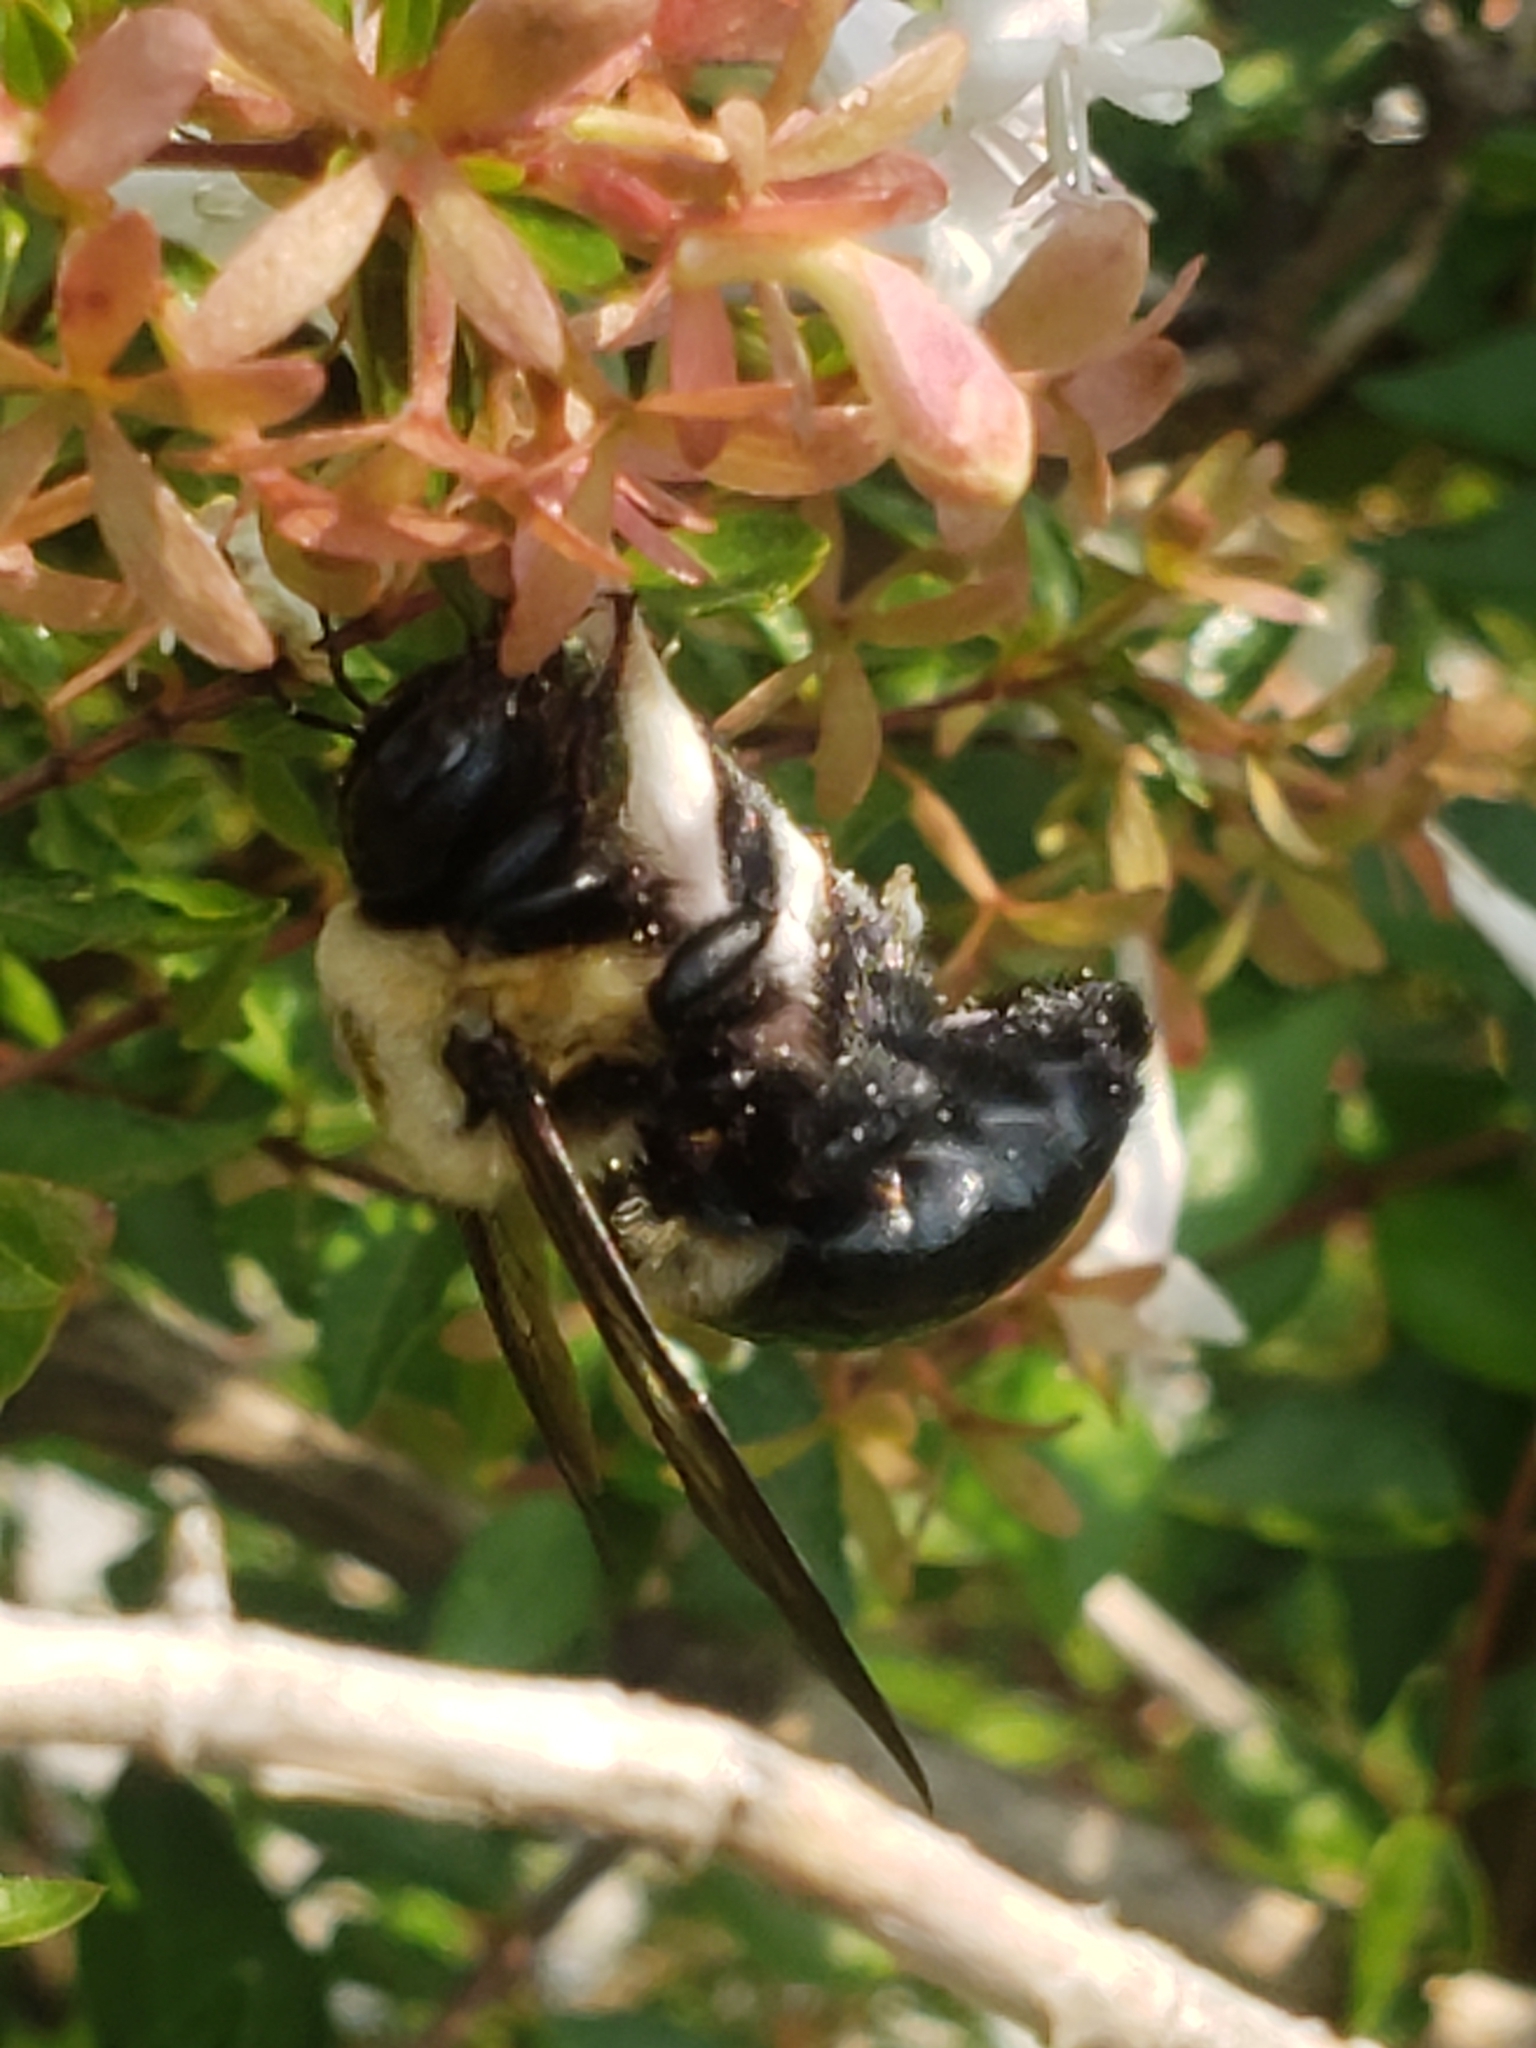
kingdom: Animalia
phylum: Arthropoda
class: Insecta
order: Hymenoptera
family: Apidae
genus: Xylocopa
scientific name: Xylocopa virginica
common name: Carpenter bee
